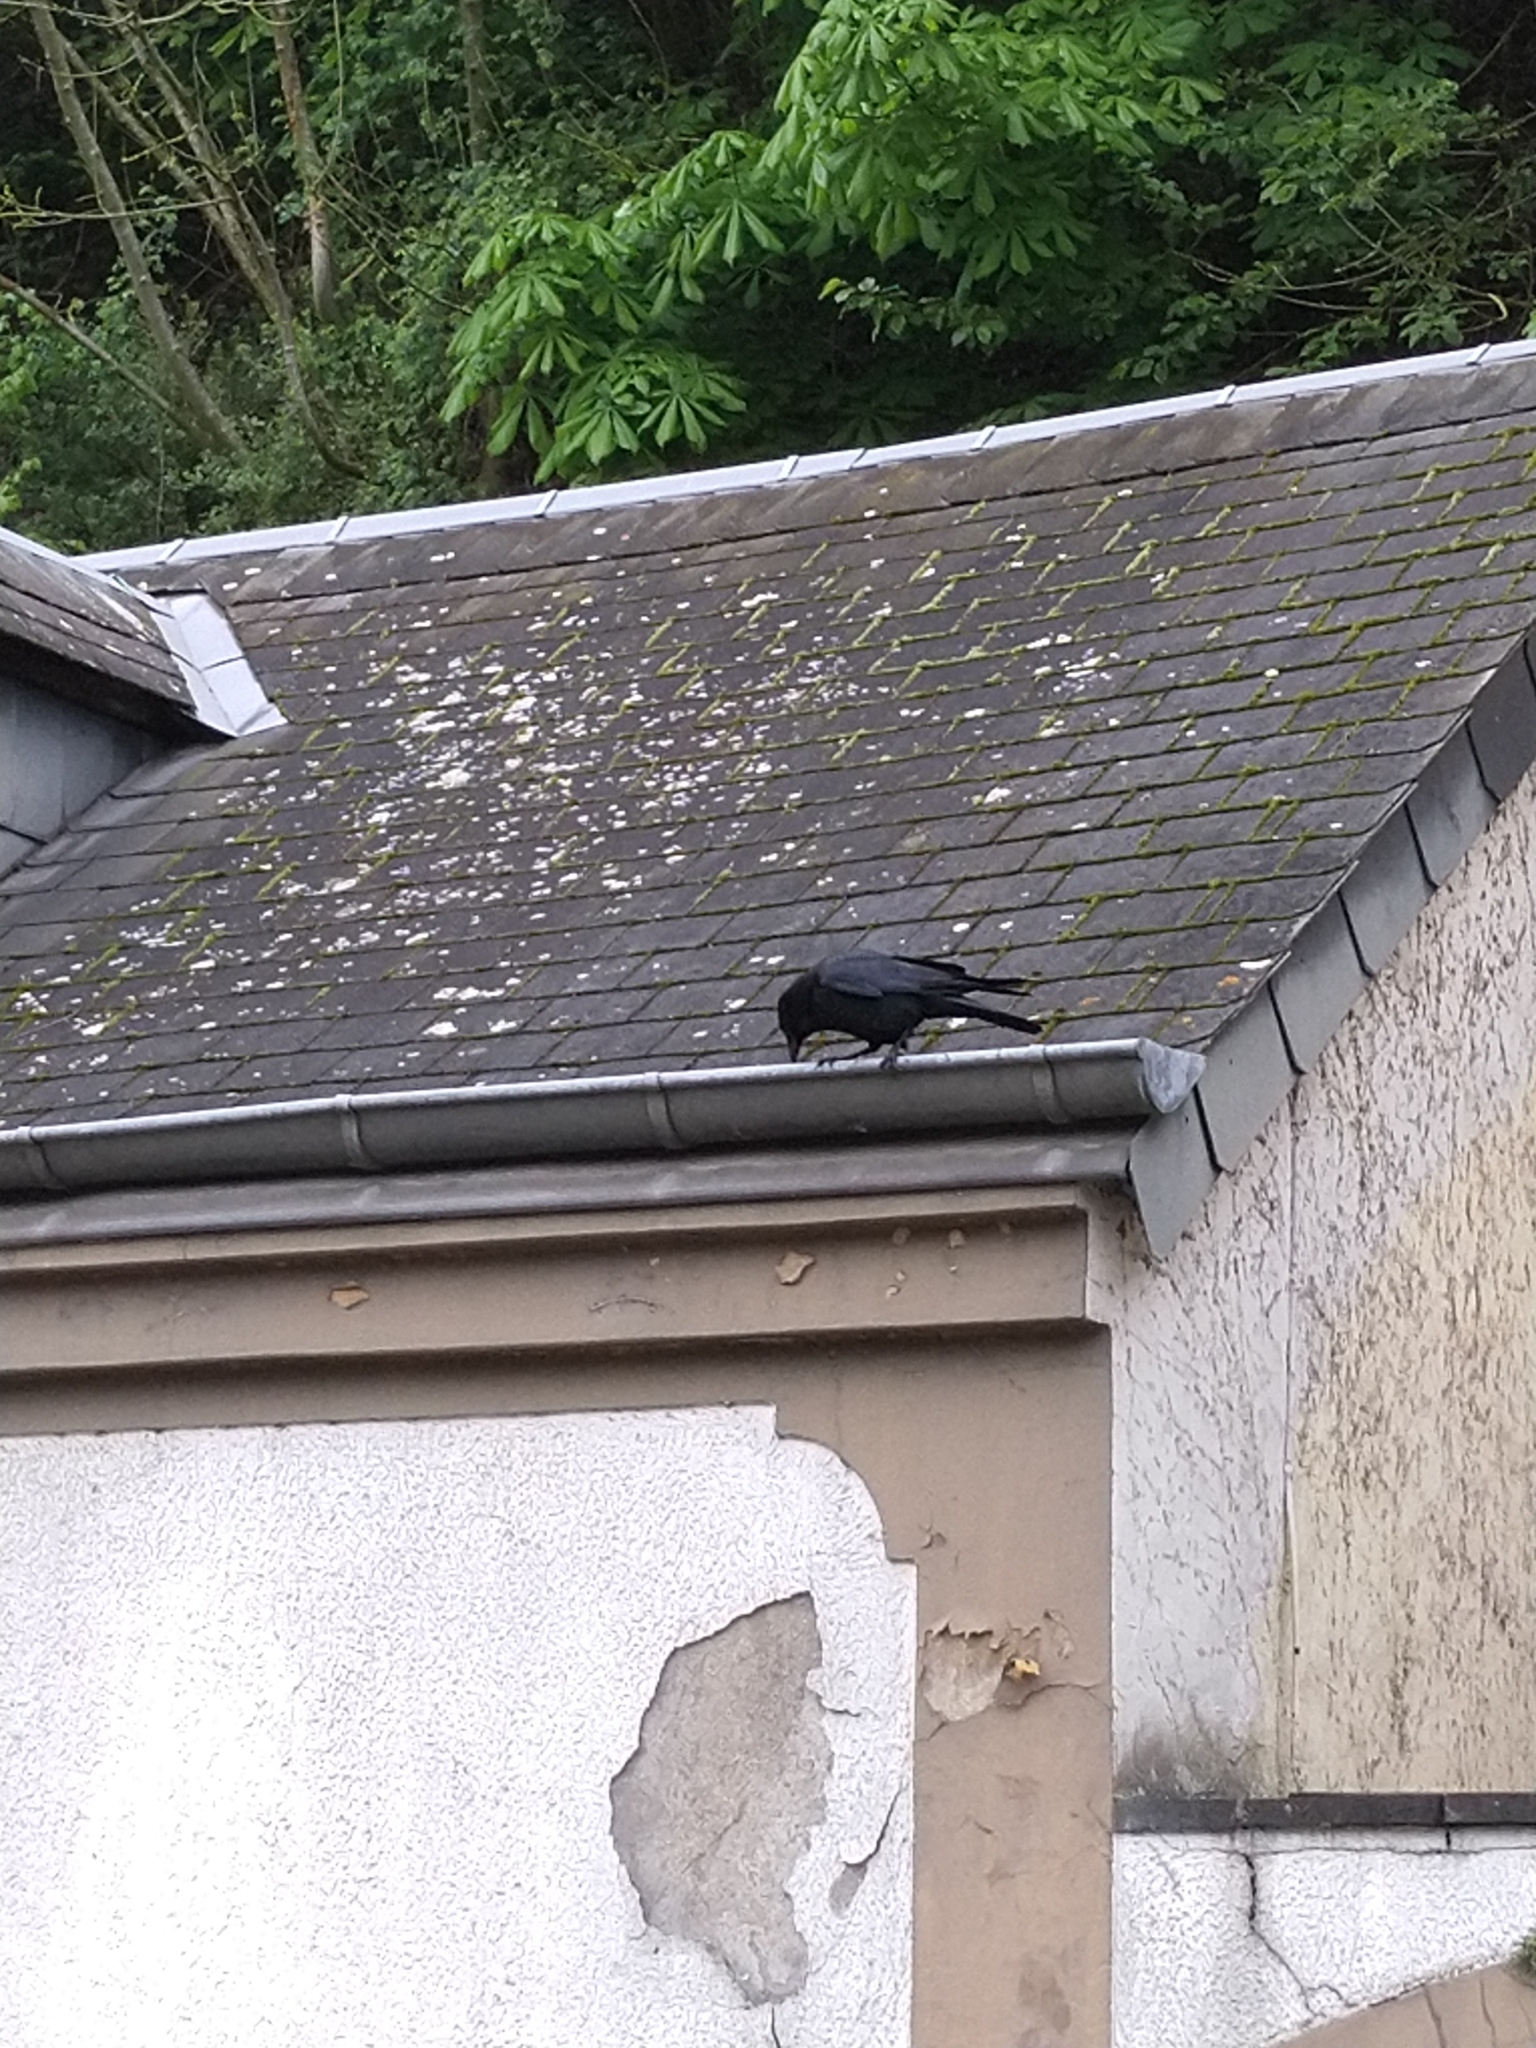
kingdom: Animalia
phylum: Chordata
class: Aves
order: Passeriformes
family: Corvidae
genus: Corvus
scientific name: Corvus corone
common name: Carrion crow
